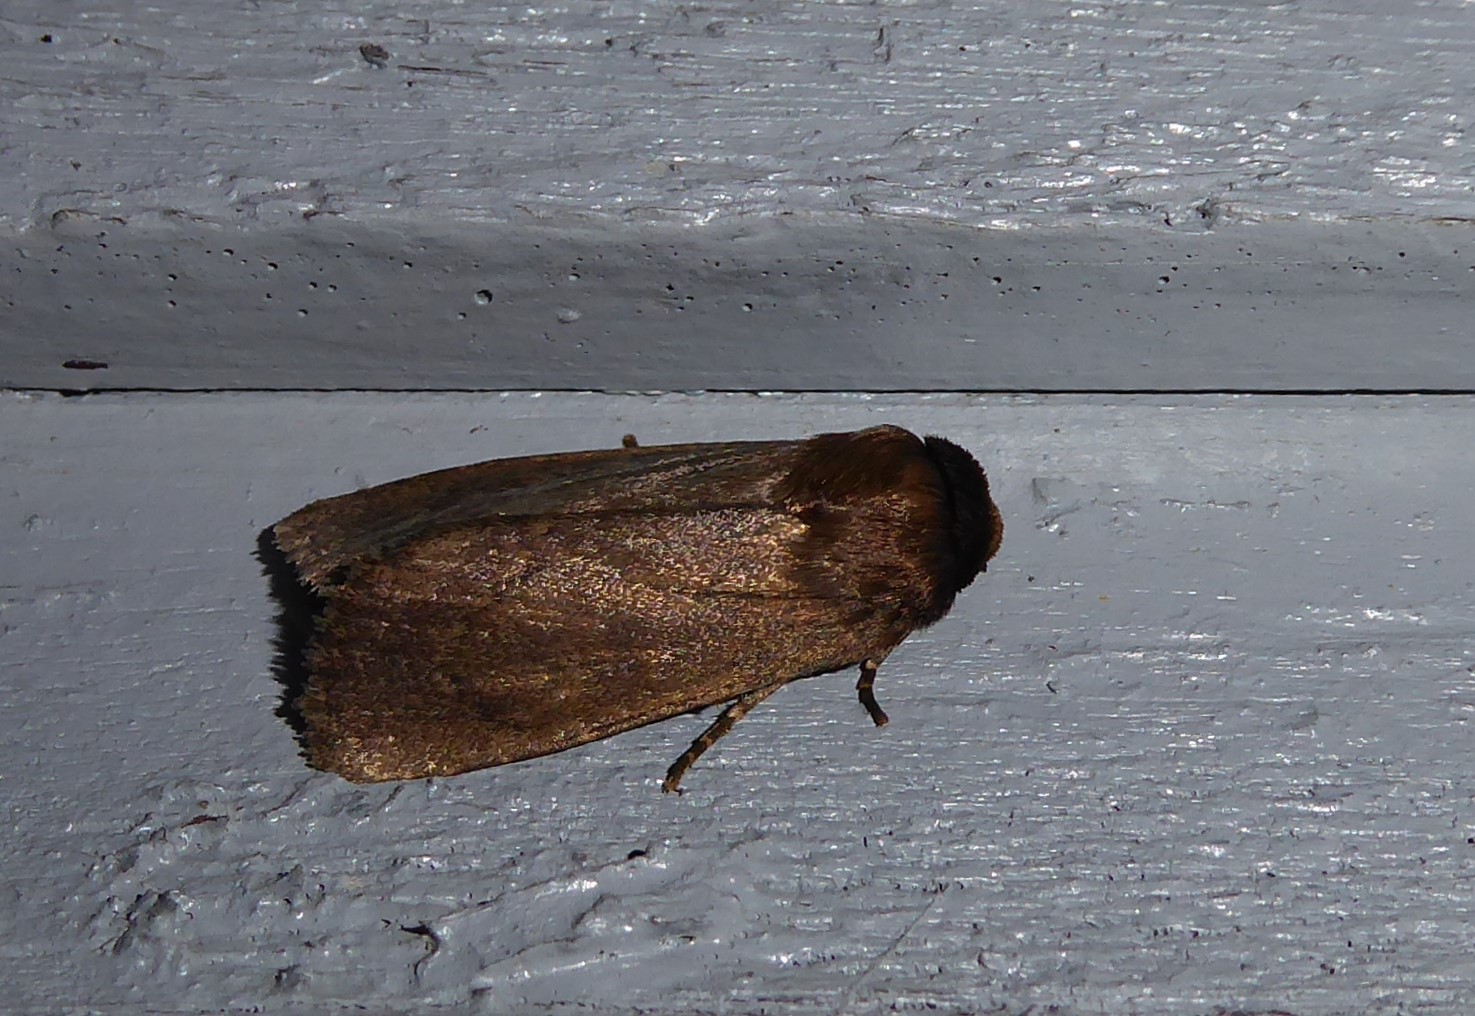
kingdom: Animalia
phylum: Arthropoda
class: Insecta
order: Lepidoptera
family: Noctuidae
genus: Bityla
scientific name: Bityla defigurata
